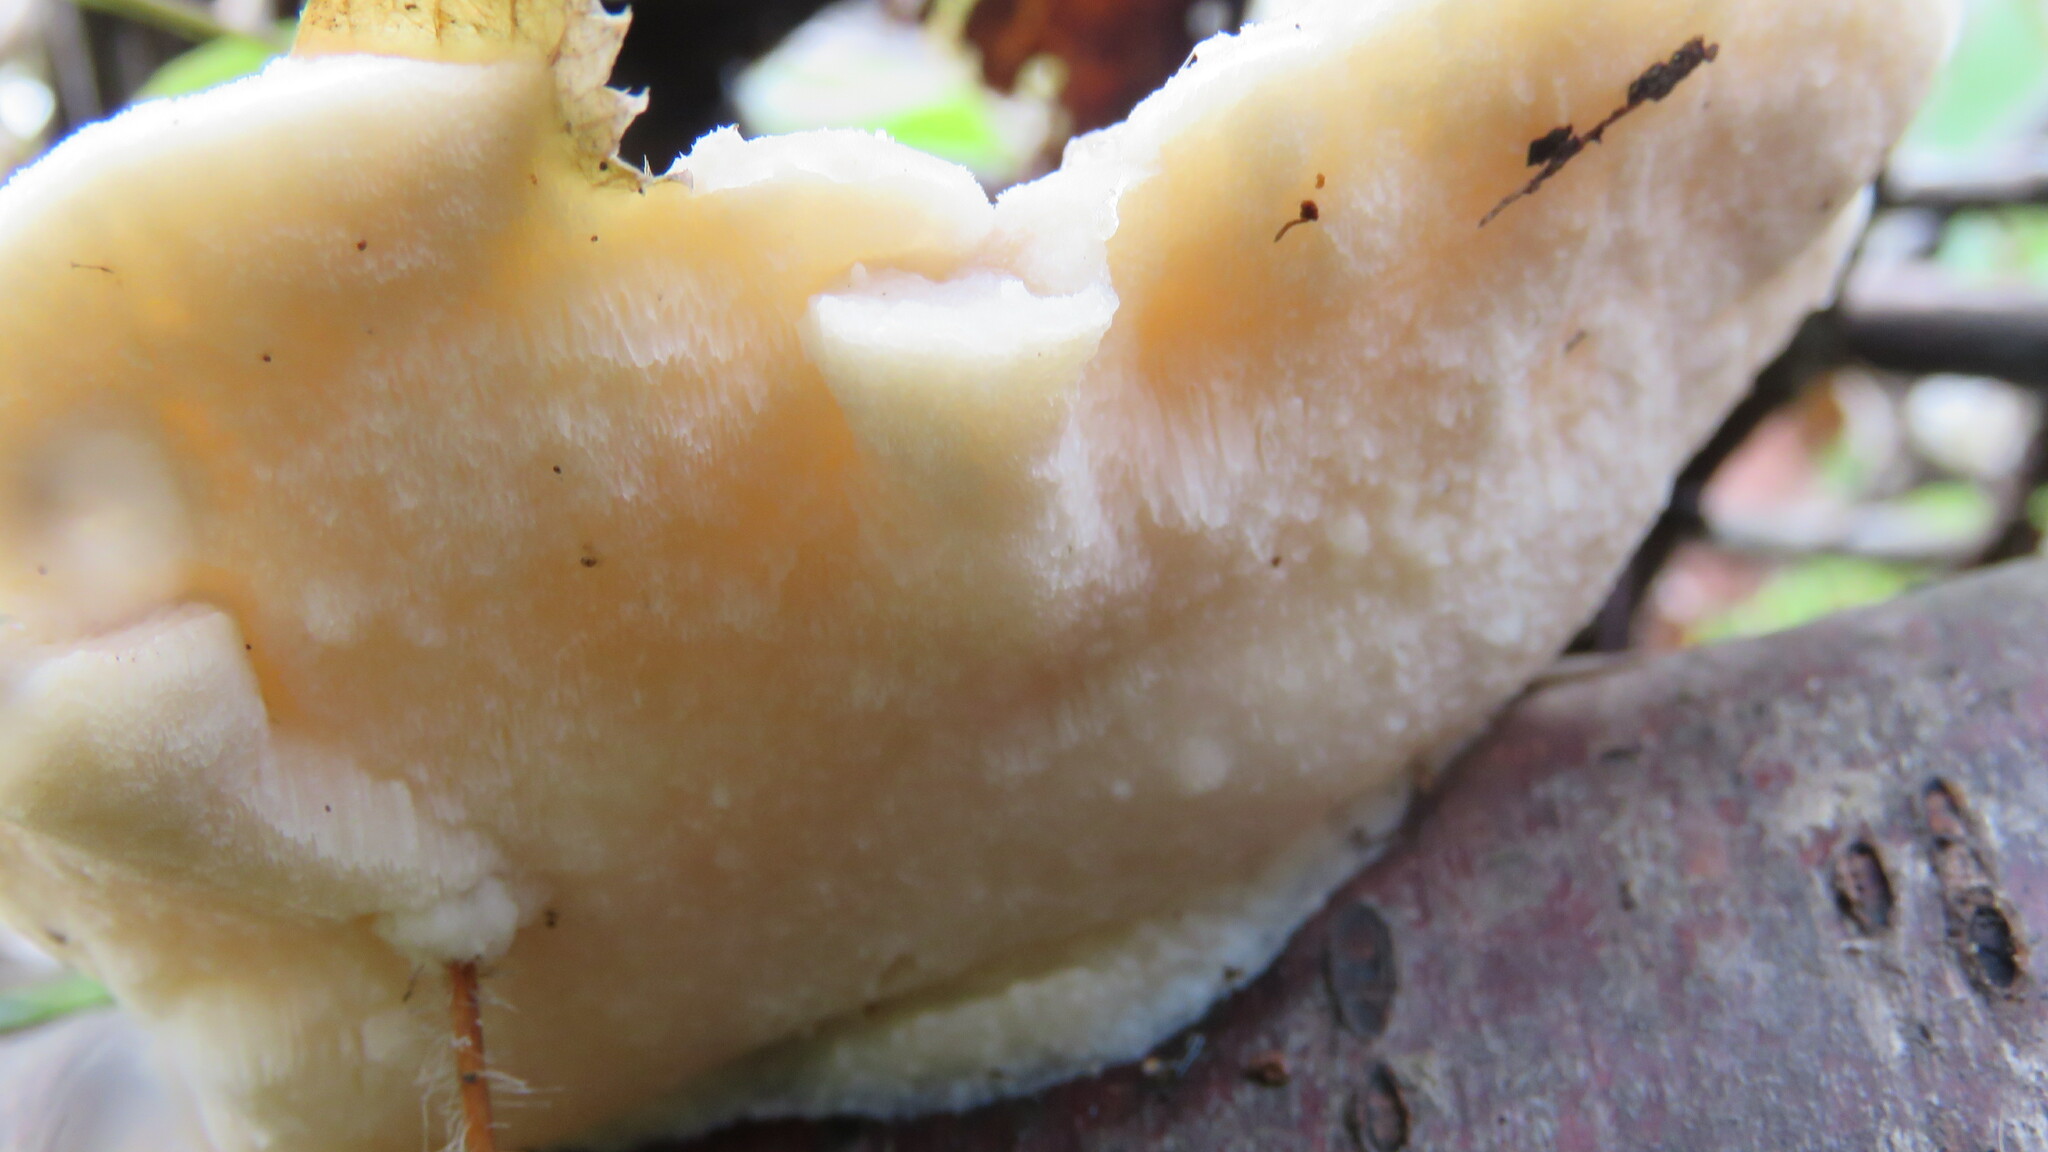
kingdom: Fungi
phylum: Basidiomycota
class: Agaricomycetes
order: Polyporales
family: Incrustoporiaceae
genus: Tyromyces
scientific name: Tyromyces chioneus
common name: White cheese polypore
